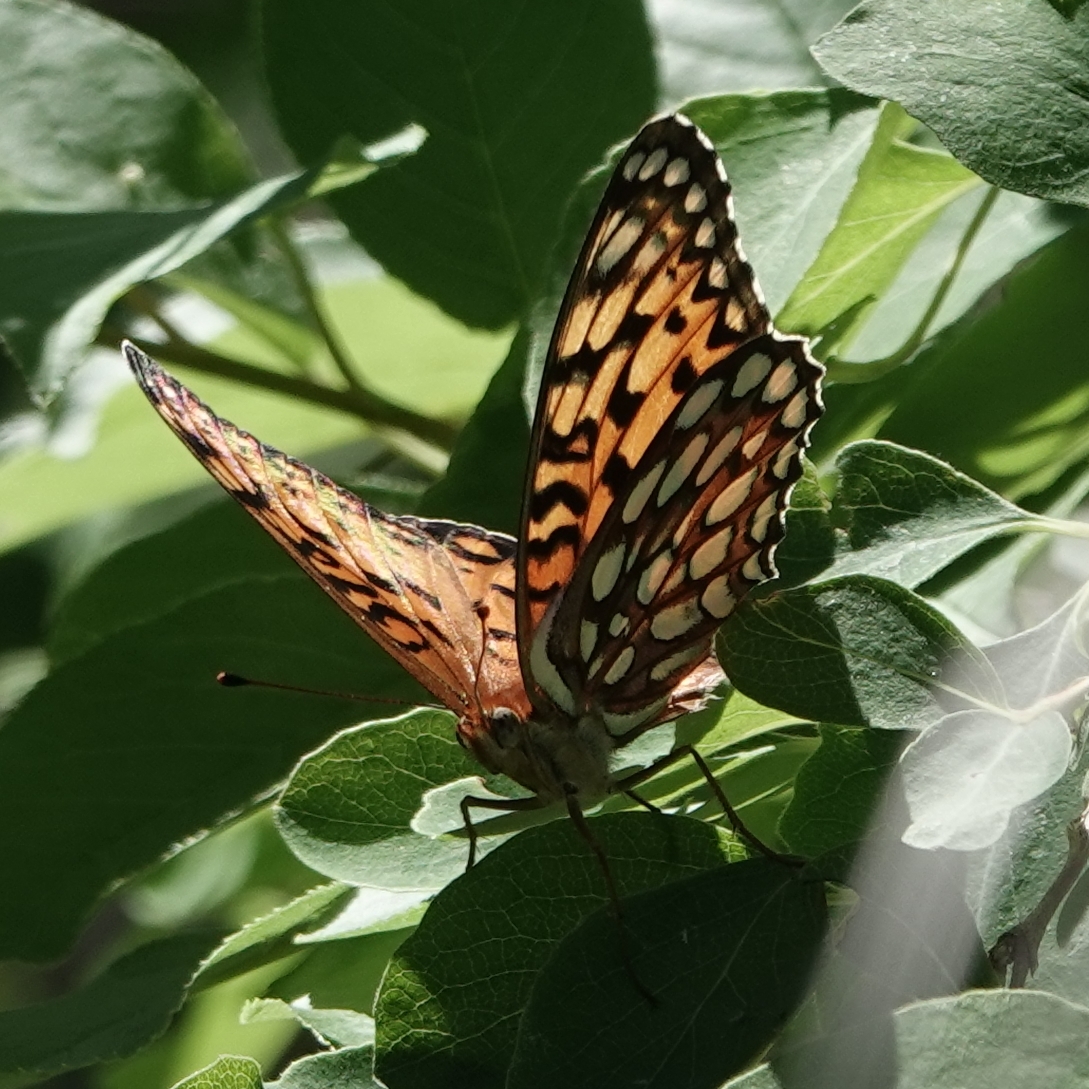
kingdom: Animalia
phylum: Arthropoda
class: Insecta
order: Lepidoptera
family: Nymphalidae
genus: Speyeria
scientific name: Speyeria edwardsii
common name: Edwards' fritillary
